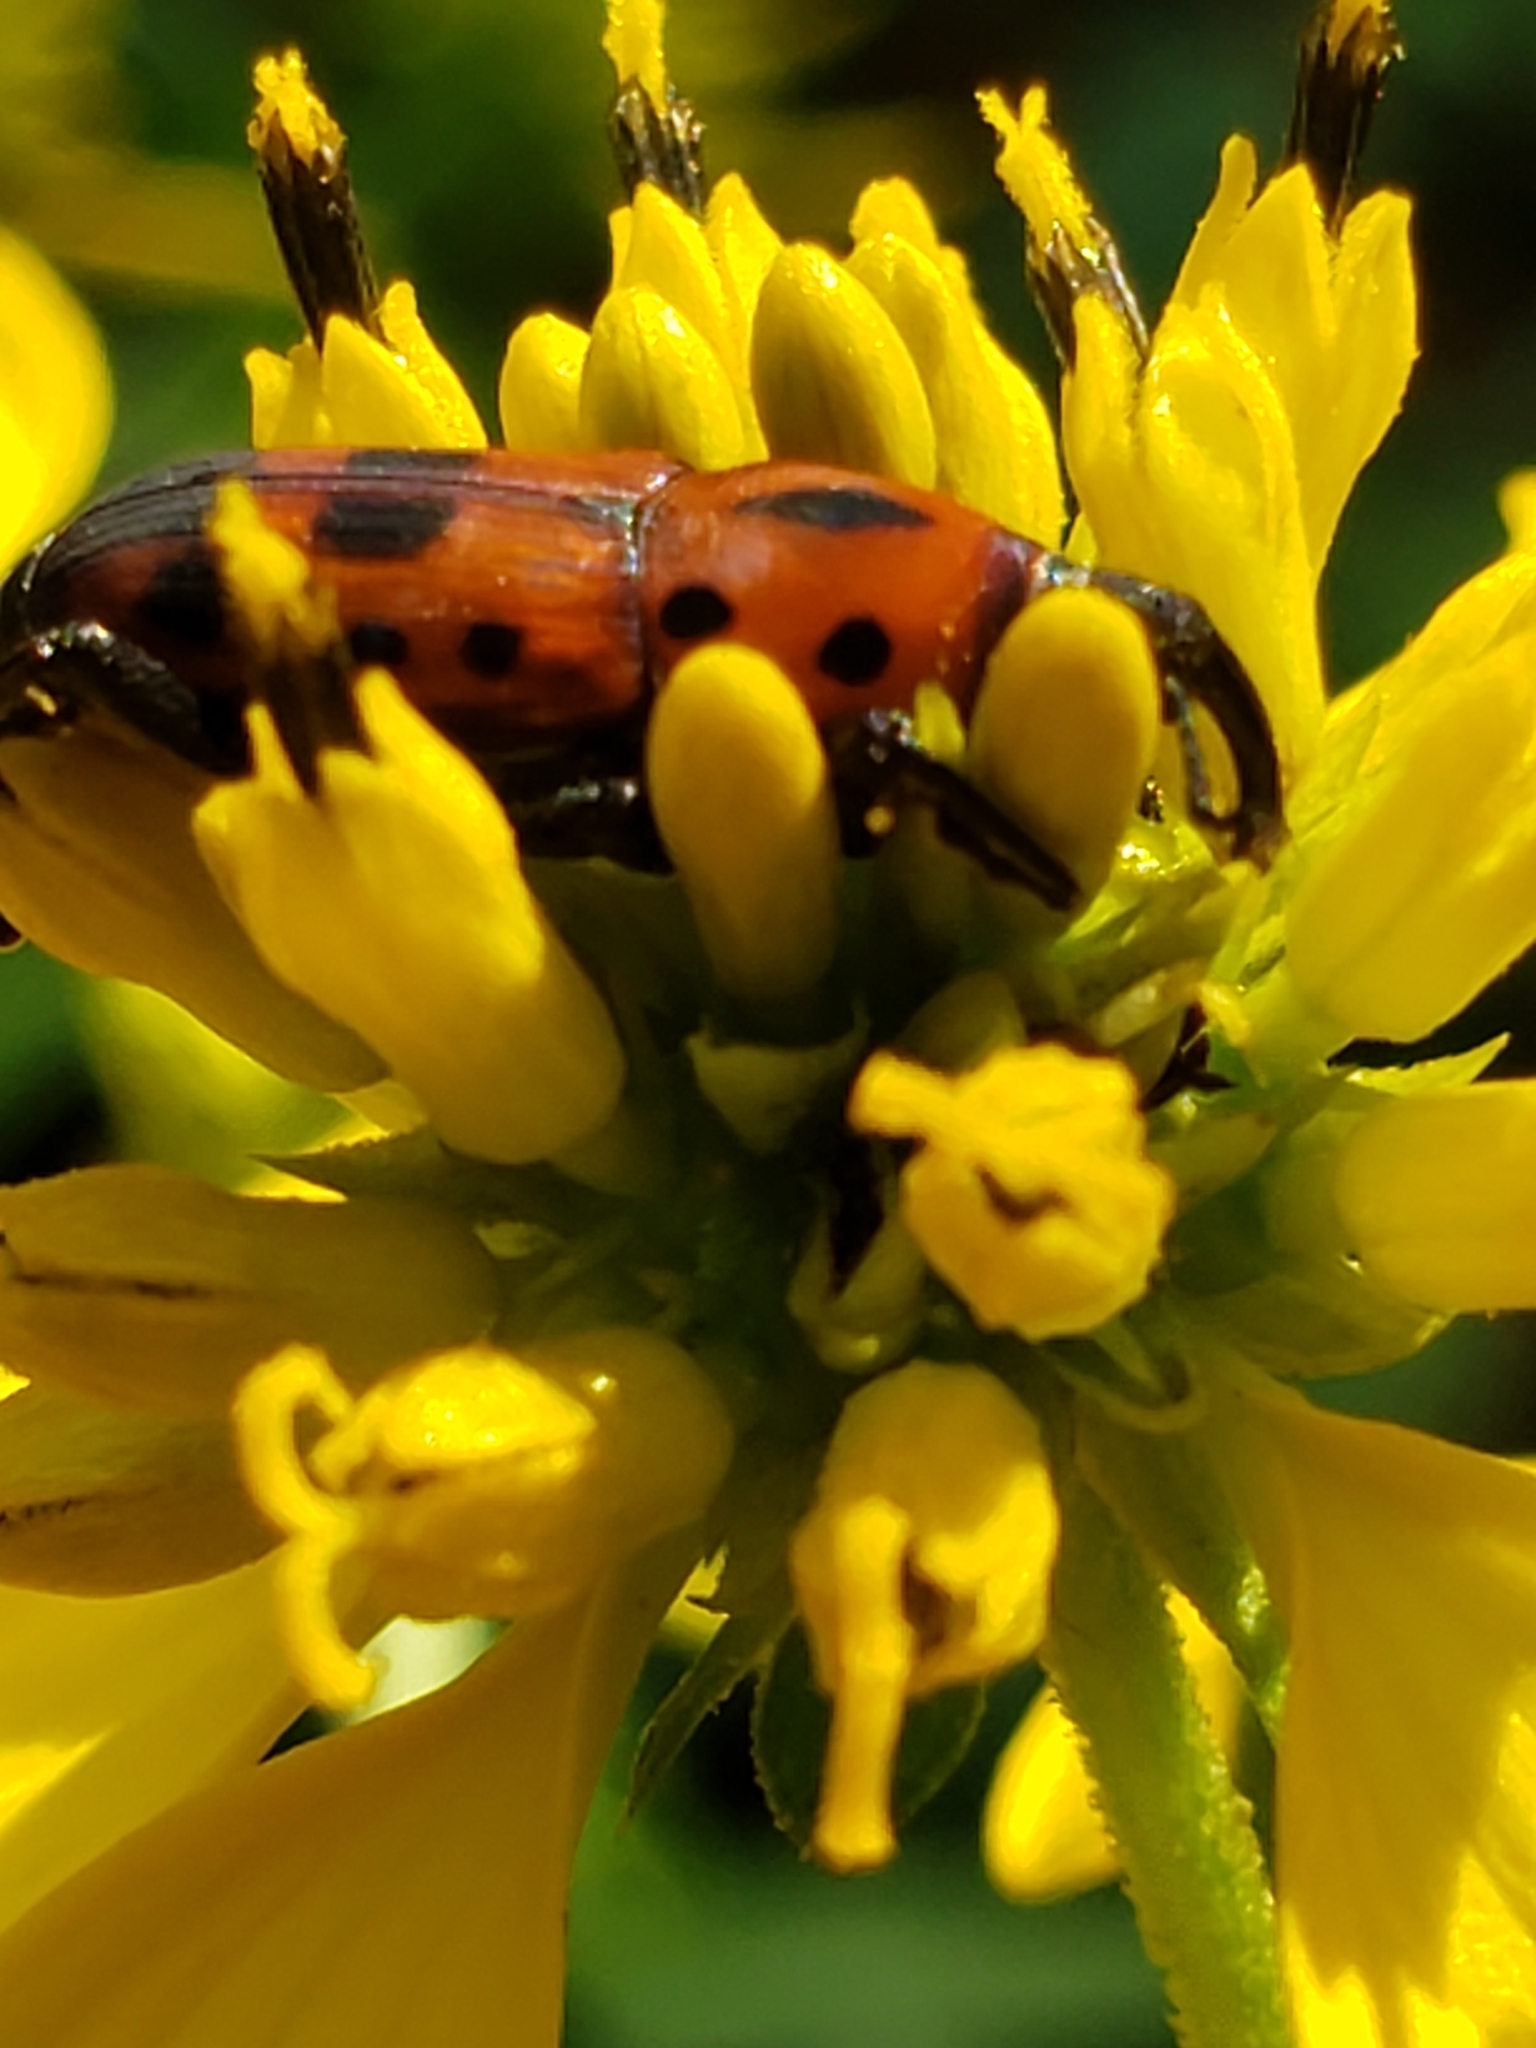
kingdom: Animalia
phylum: Arthropoda
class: Insecta
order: Coleoptera
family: Dryophthoridae
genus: Rhodobaenus
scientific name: Rhodobaenus tredecimpunctatus
